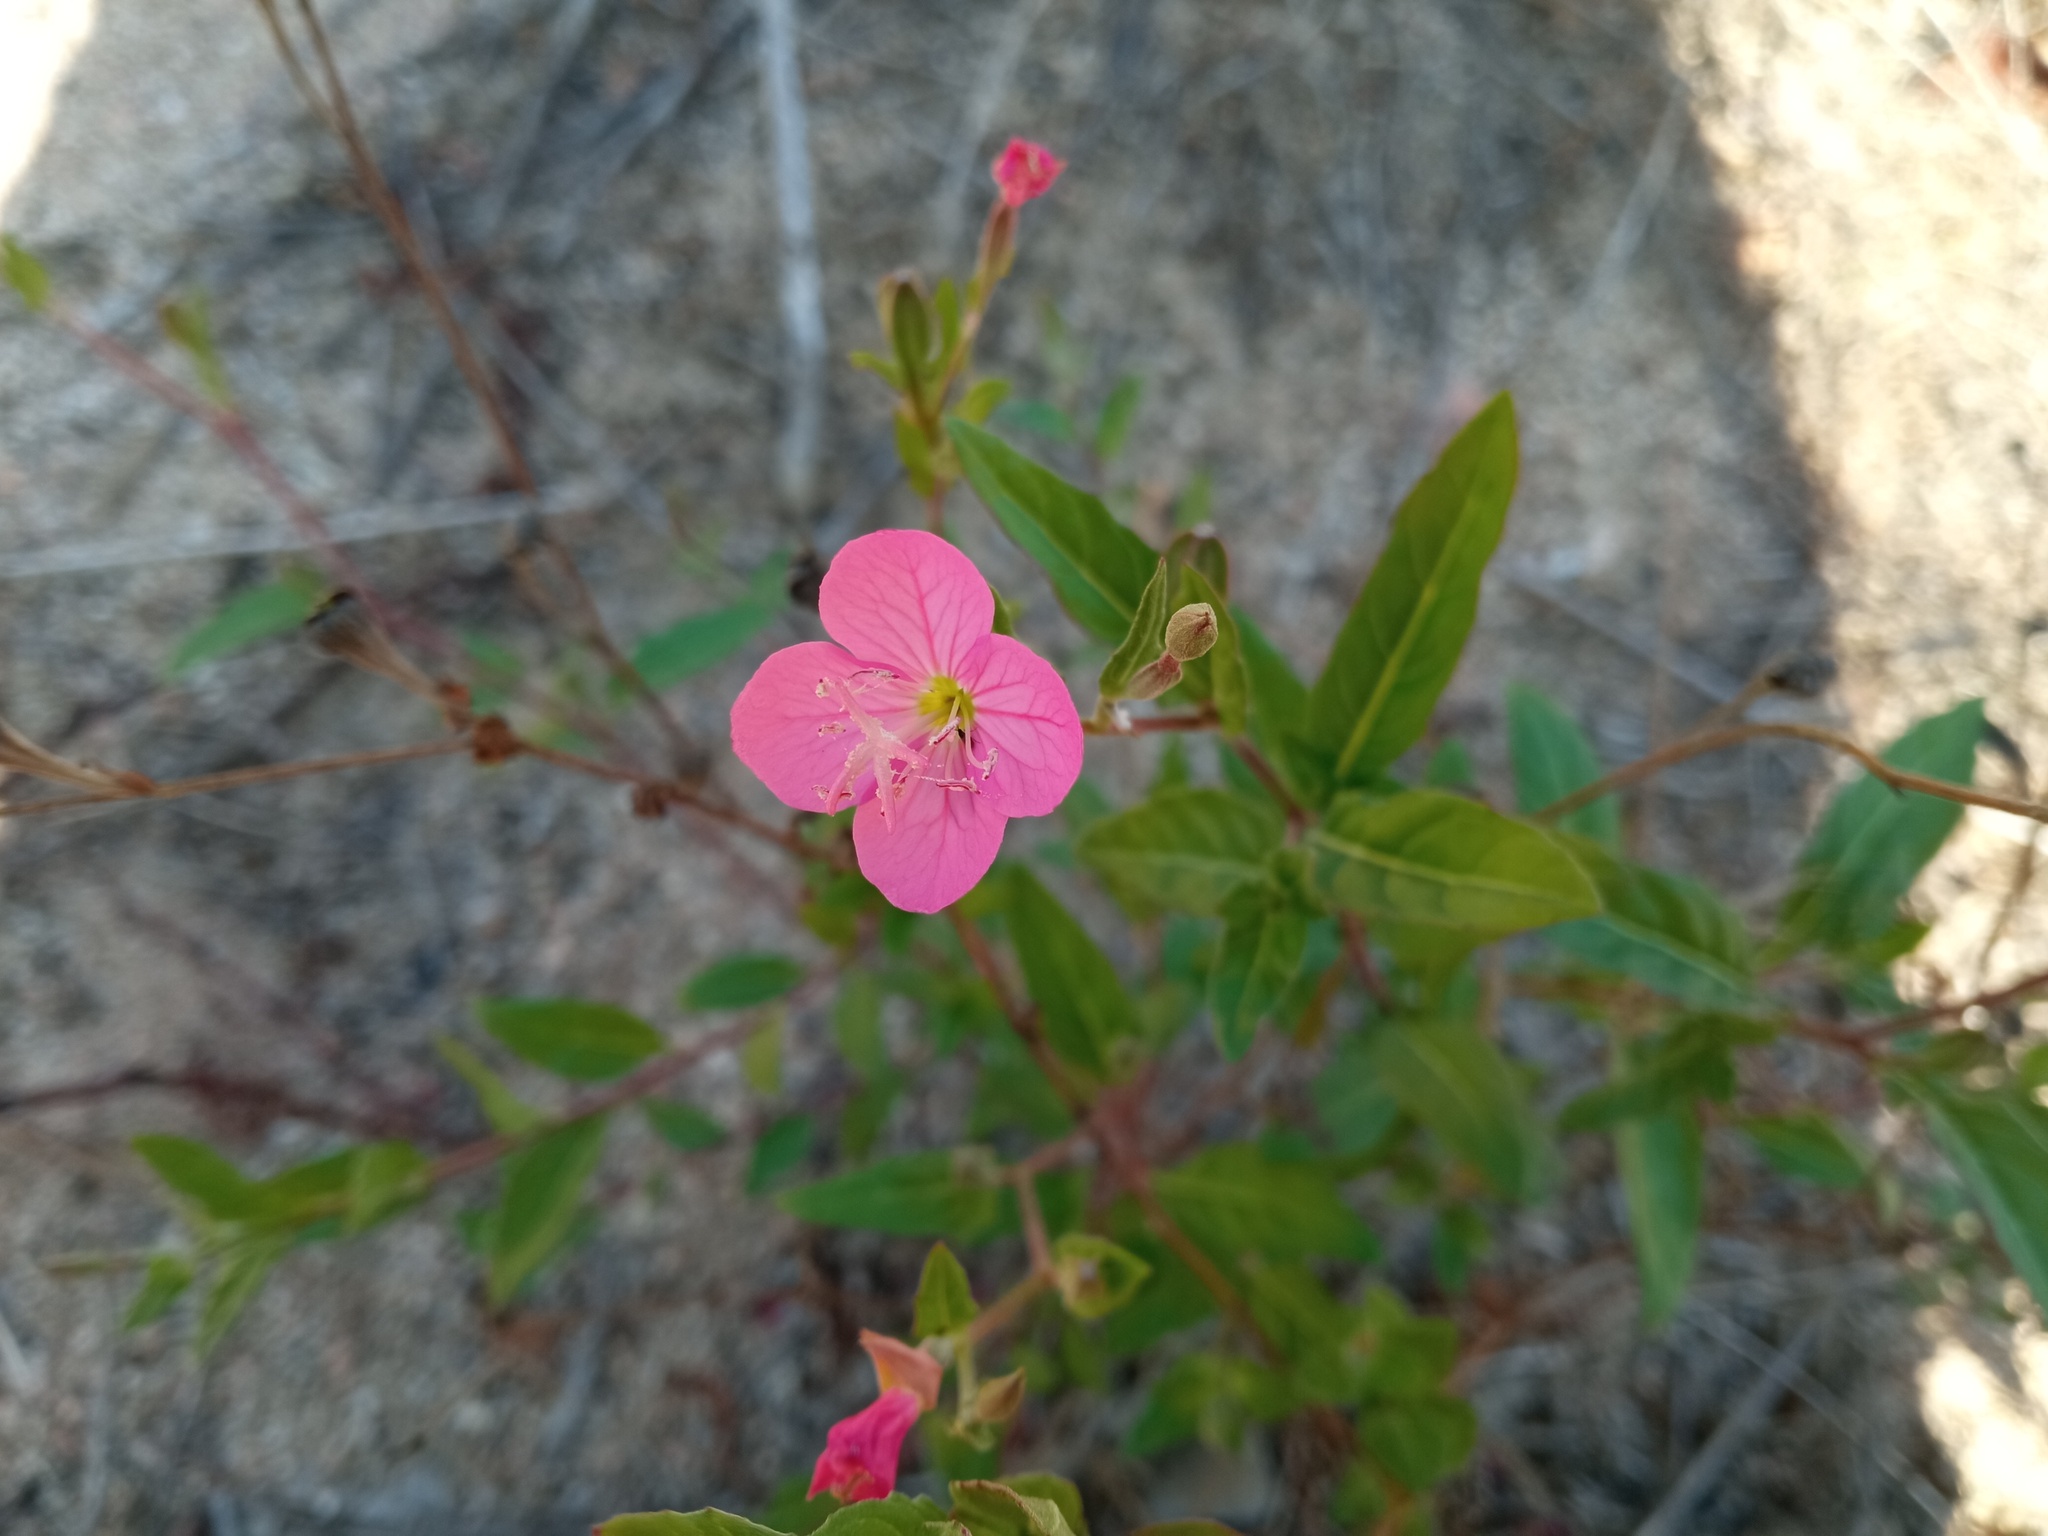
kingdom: Plantae
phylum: Tracheophyta
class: Magnoliopsida
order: Myrtales
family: Onagraceae
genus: Oenothera
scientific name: Oenothera rosea
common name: Rosy evening-primrose
